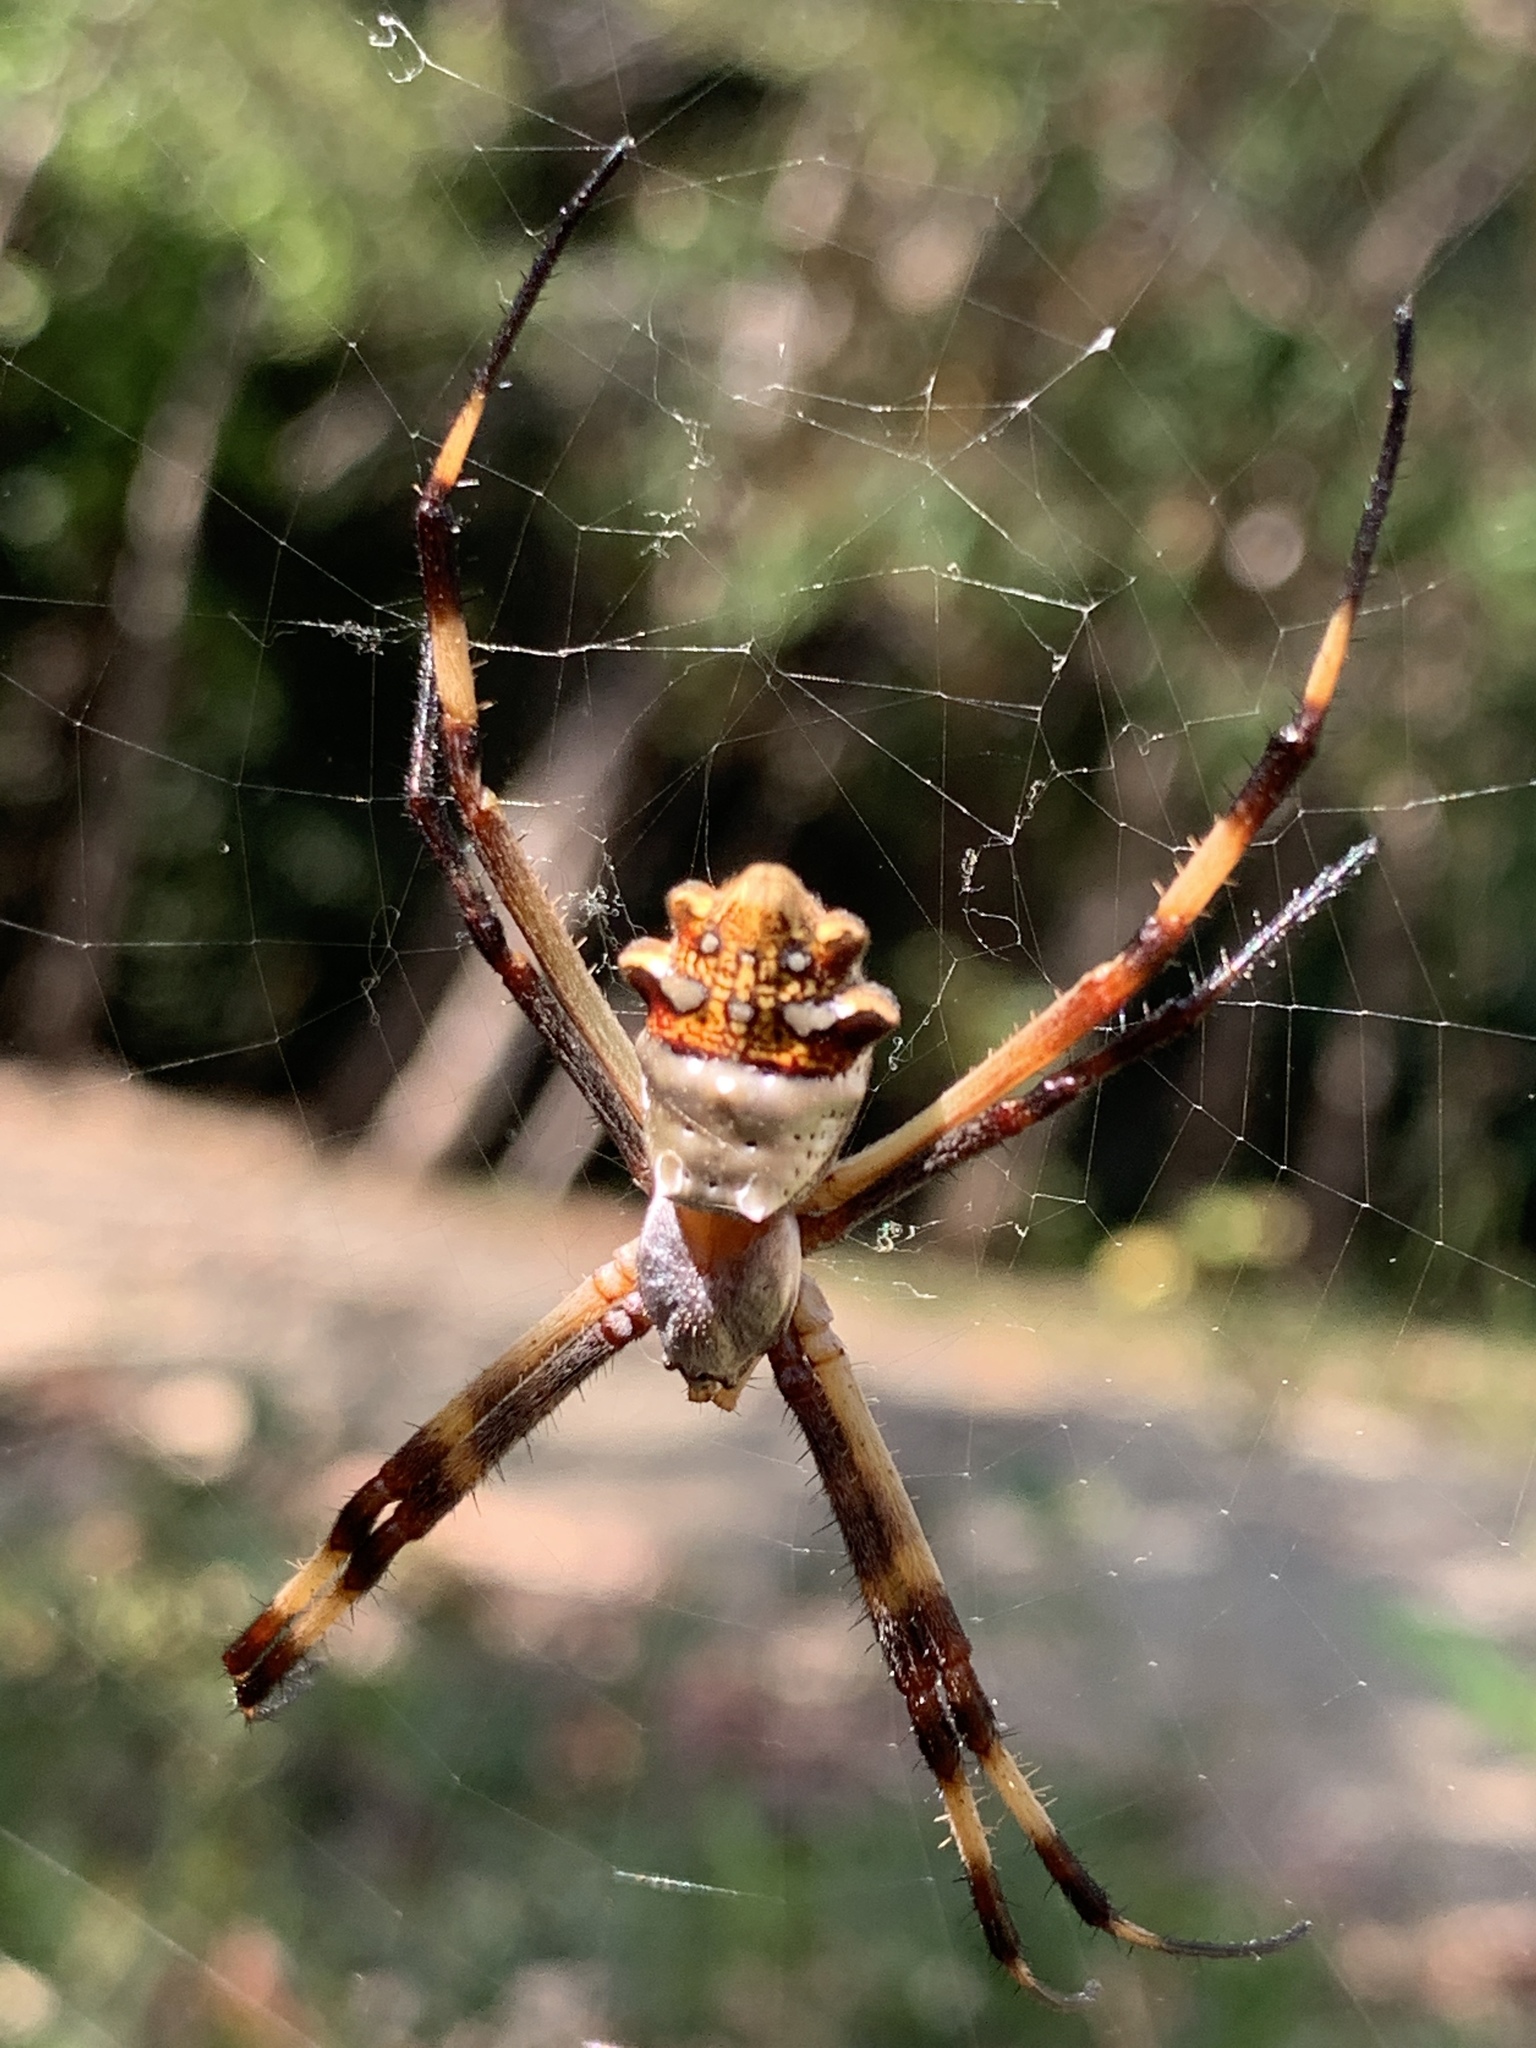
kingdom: Animalia
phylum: Arthropoda
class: Arachnida
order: Araneae
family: Araneidae
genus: Argiope
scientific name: Argiope argentata
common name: Orb weavers
